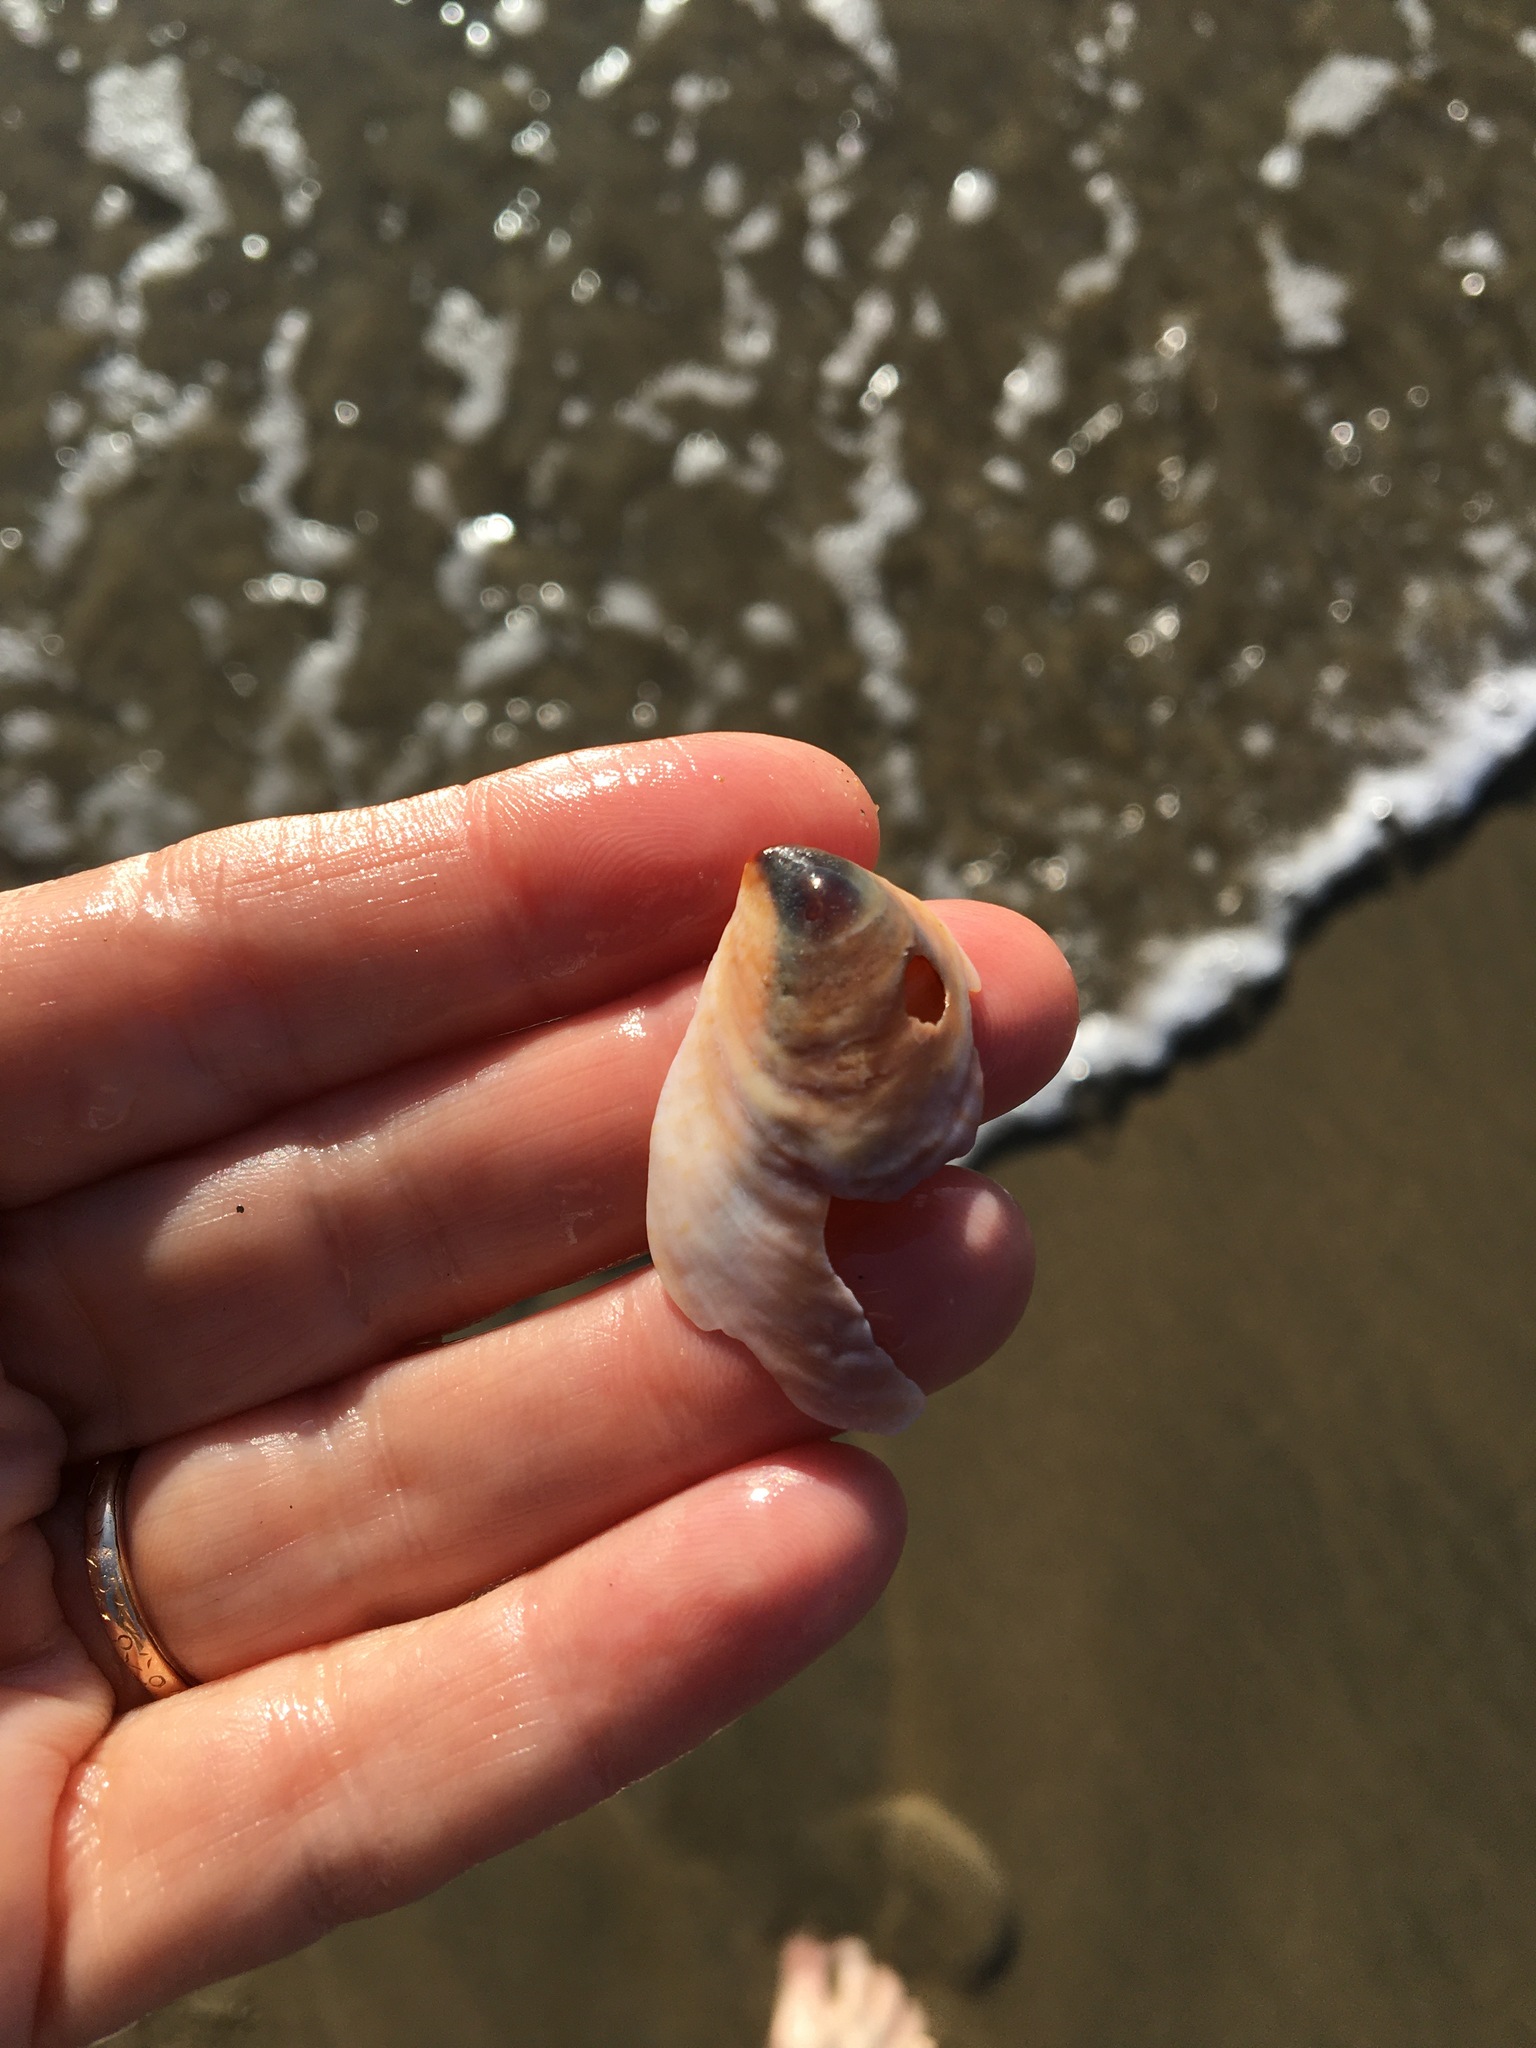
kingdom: Animalia
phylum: Mollusca
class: Gastropoda
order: Littorinimorpha
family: Calyptraeidae
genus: Crepidula
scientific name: Crepidula onyx
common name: Onyx slippersnail
